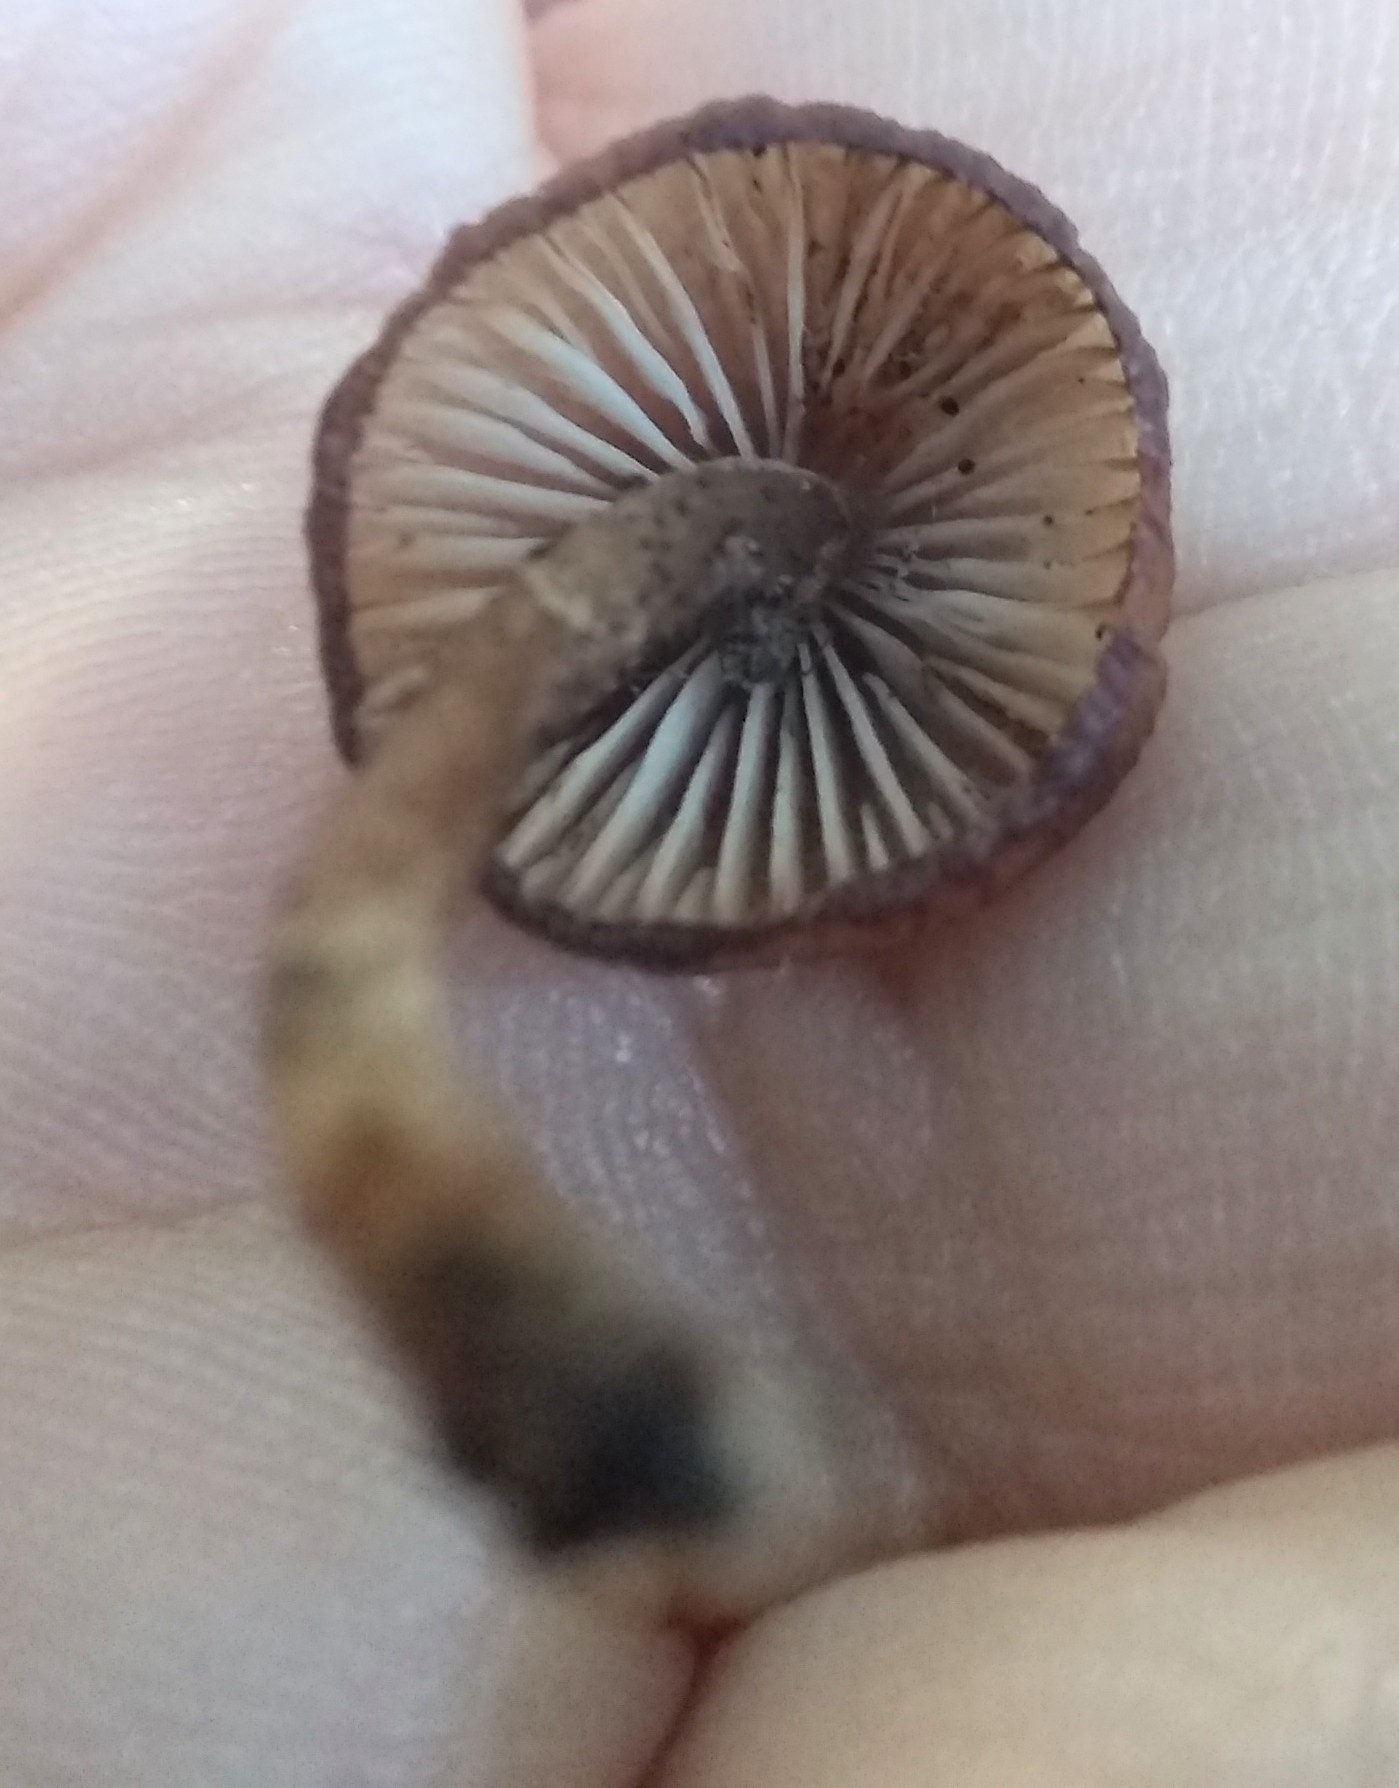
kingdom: Fungi
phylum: Basidiomycota
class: Agaricomycetes
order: Agaricales
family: Mycenaceae
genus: Mycena
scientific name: Mycena haematopus
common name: Burgundydrop bonnet
